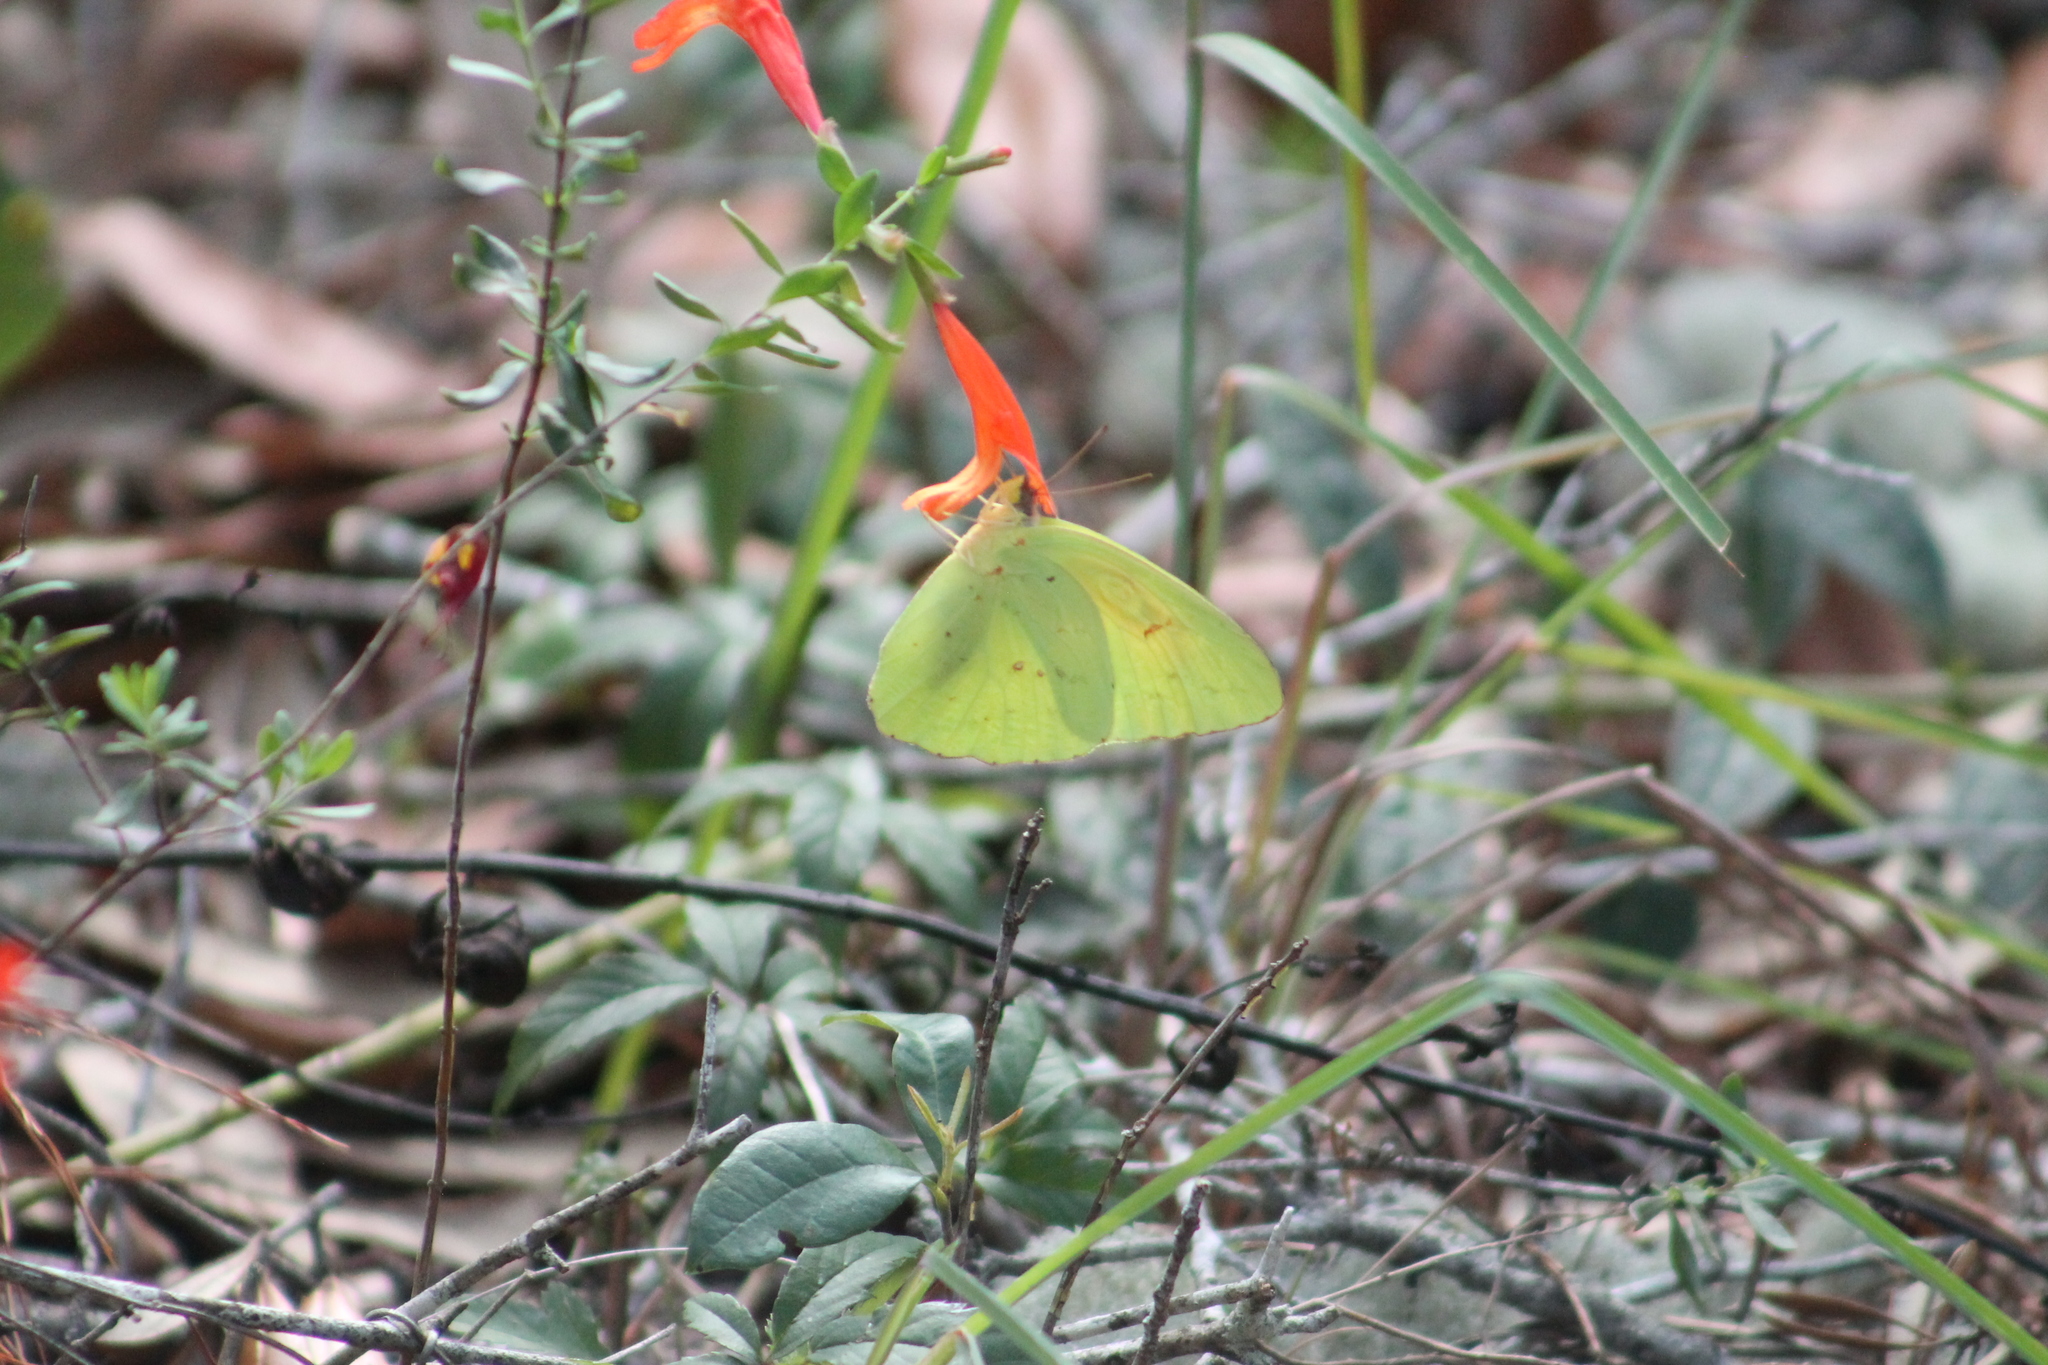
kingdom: Animalia
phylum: Arthropoda
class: Insecta
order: Lepidoptera
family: Pieridae
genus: Phoebis
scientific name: Phoebis sennae
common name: Cloudless sulphur
